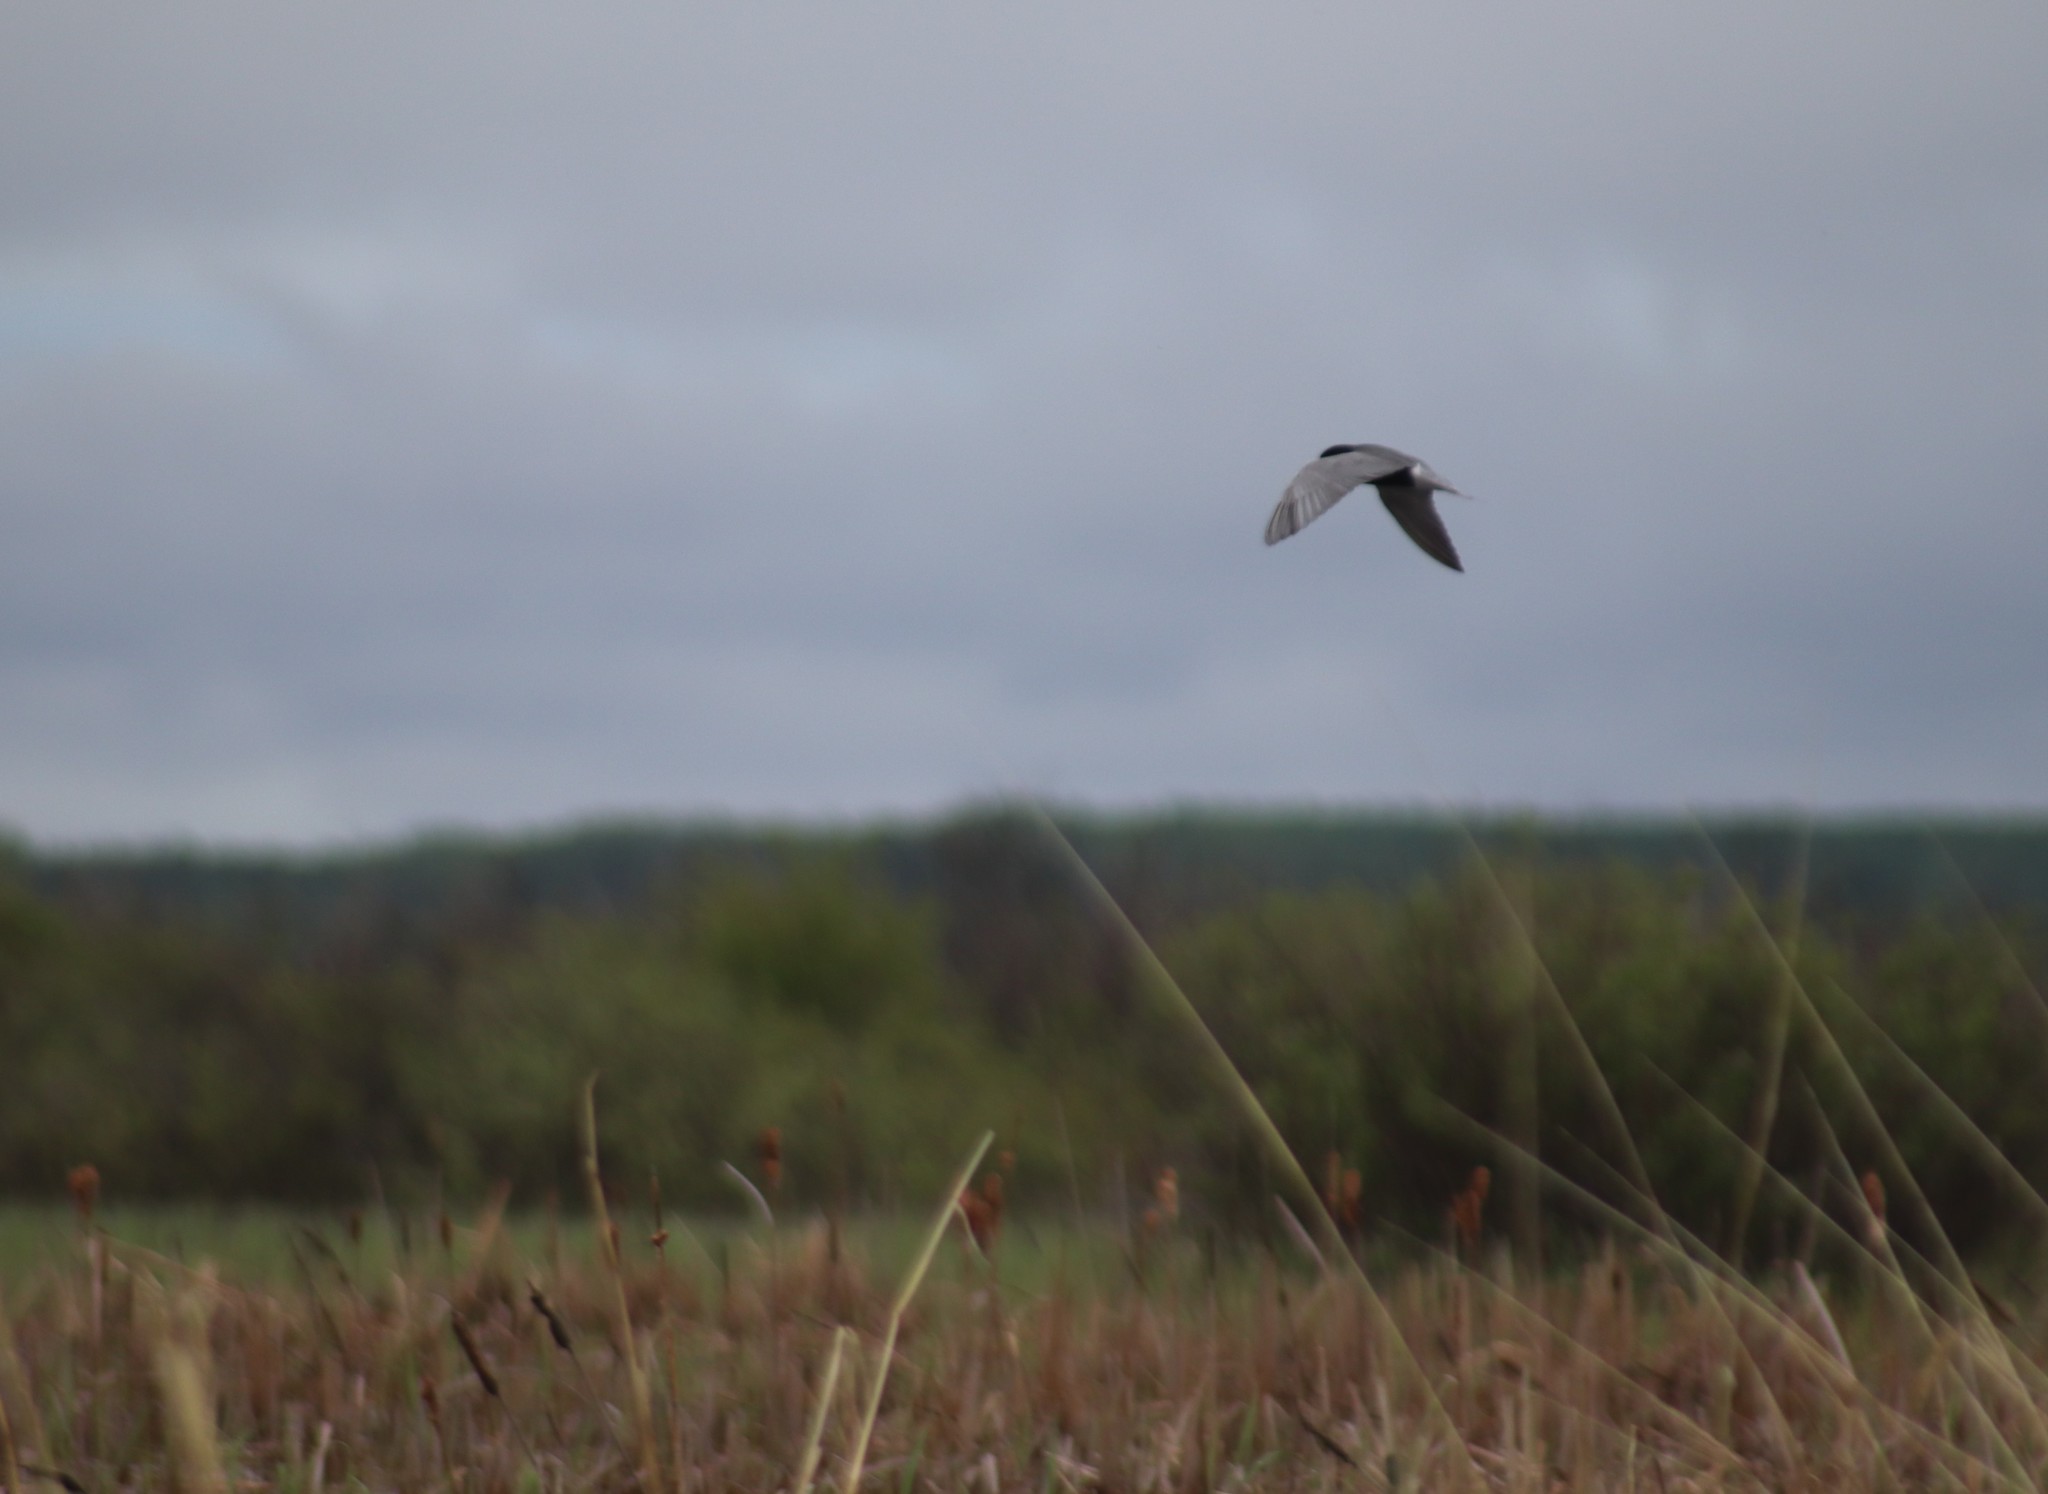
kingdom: Animalia
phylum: Chordata
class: Aves
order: Charadriiformes
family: Laridae
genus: Chlidonias
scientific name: Chlidonias niger
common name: Black tern
